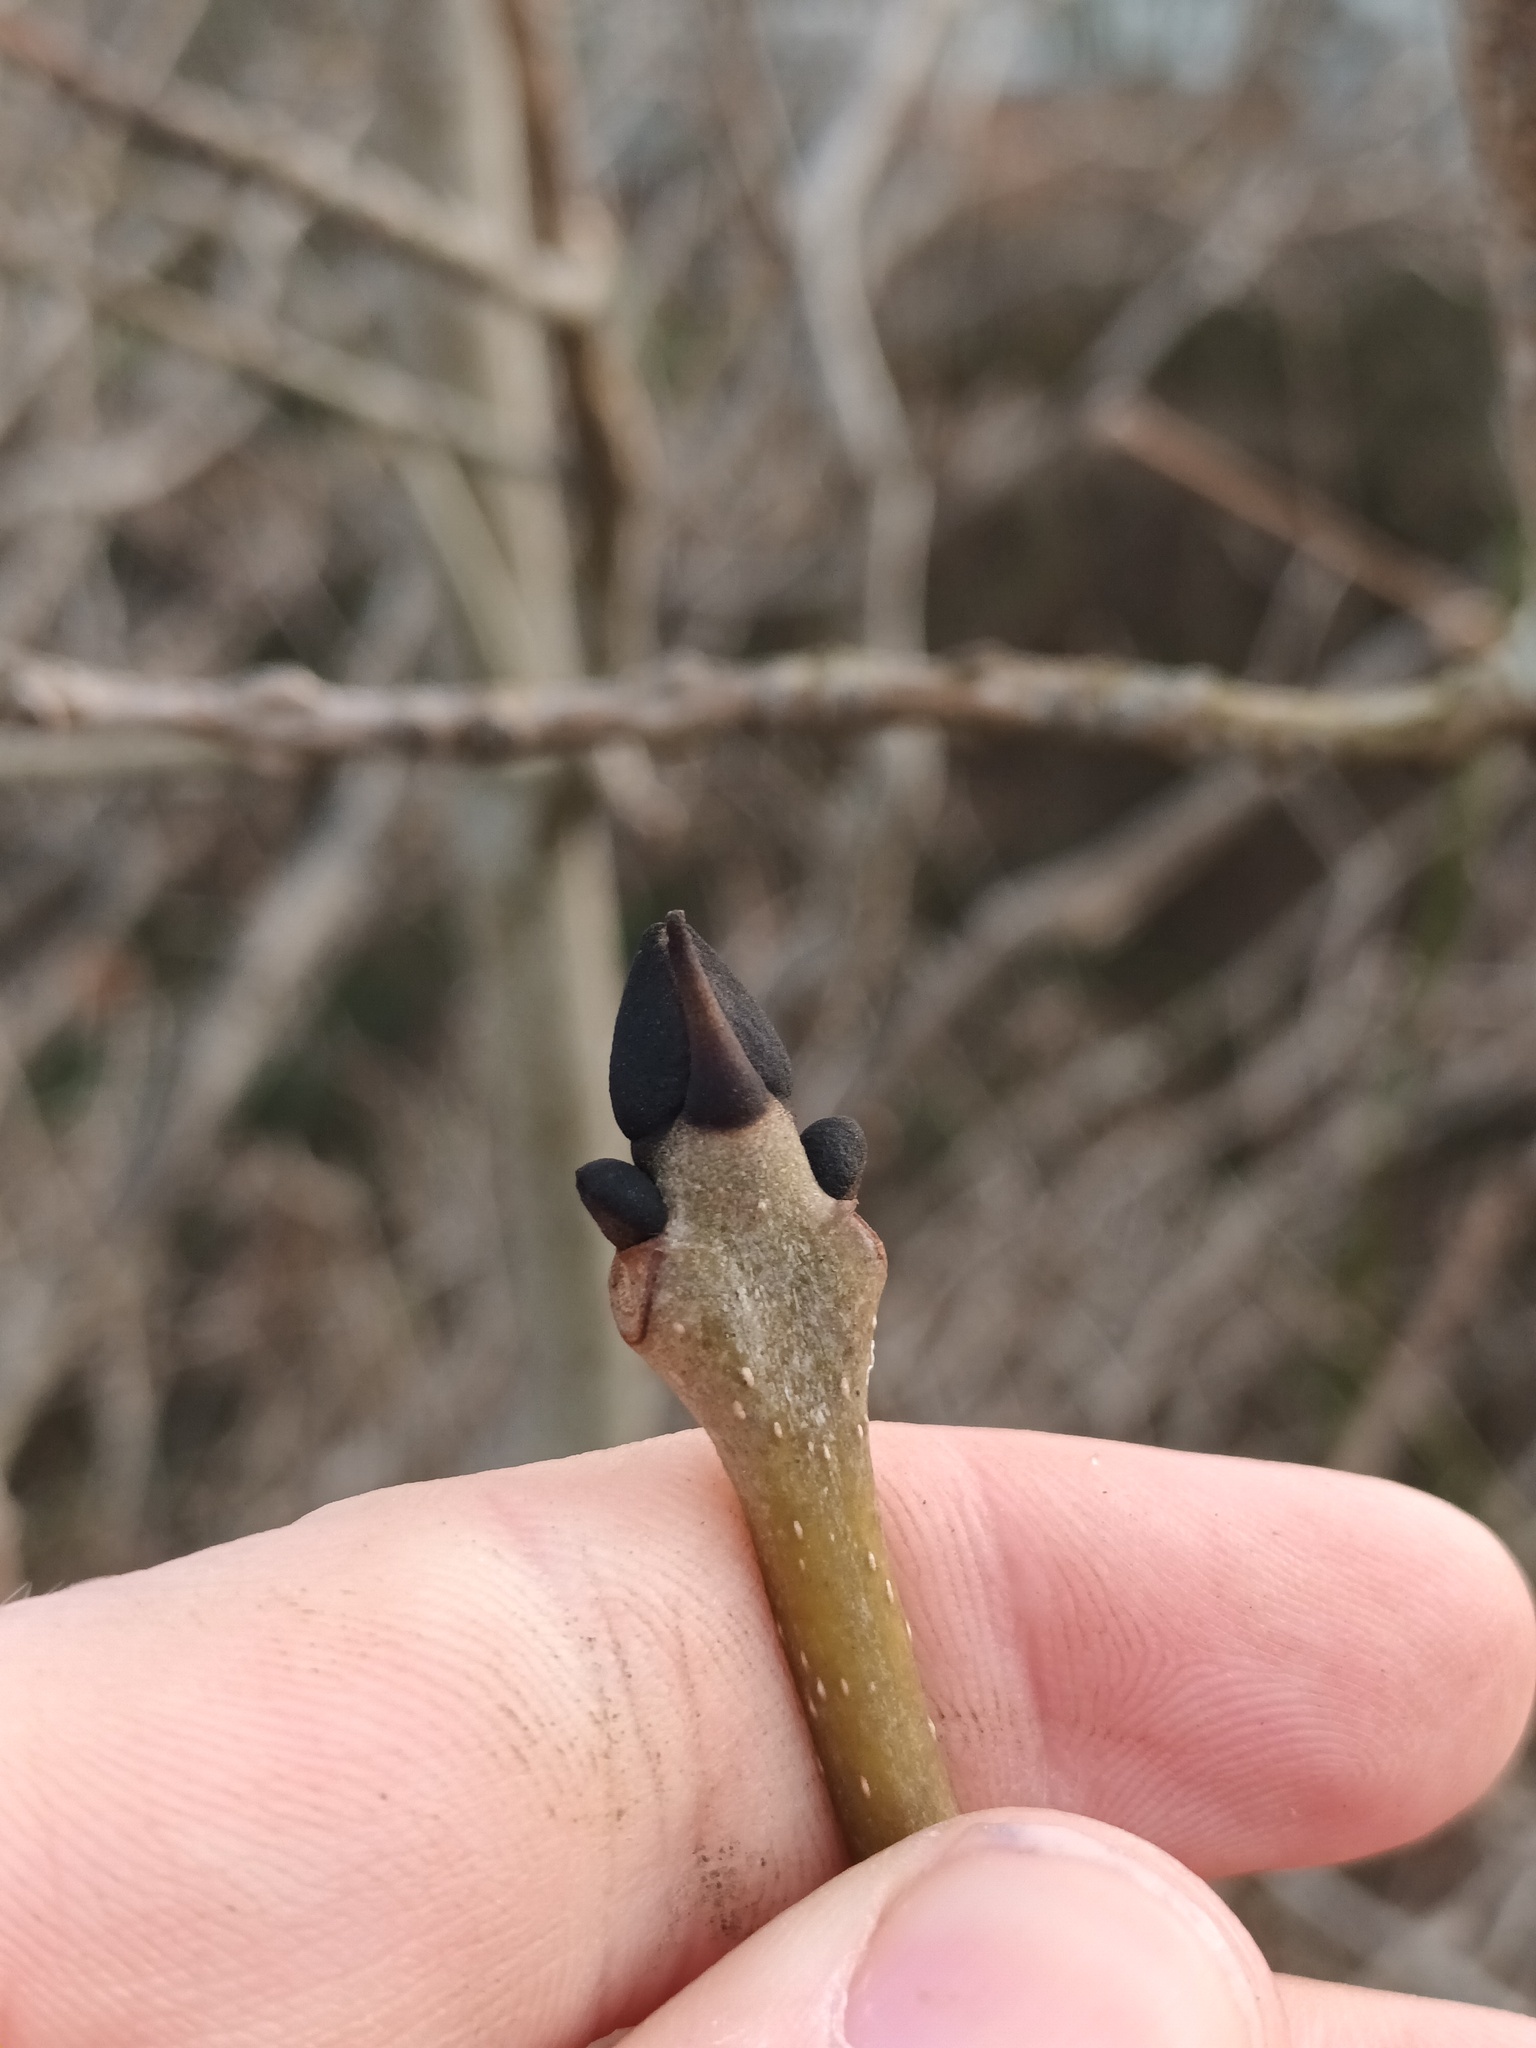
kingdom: Plantae
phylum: Tracheophyta
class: Magnoliopsida
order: Lamiales
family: Oleaceae
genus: Fraxinus
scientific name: Fraxinus excelsior
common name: European ash
